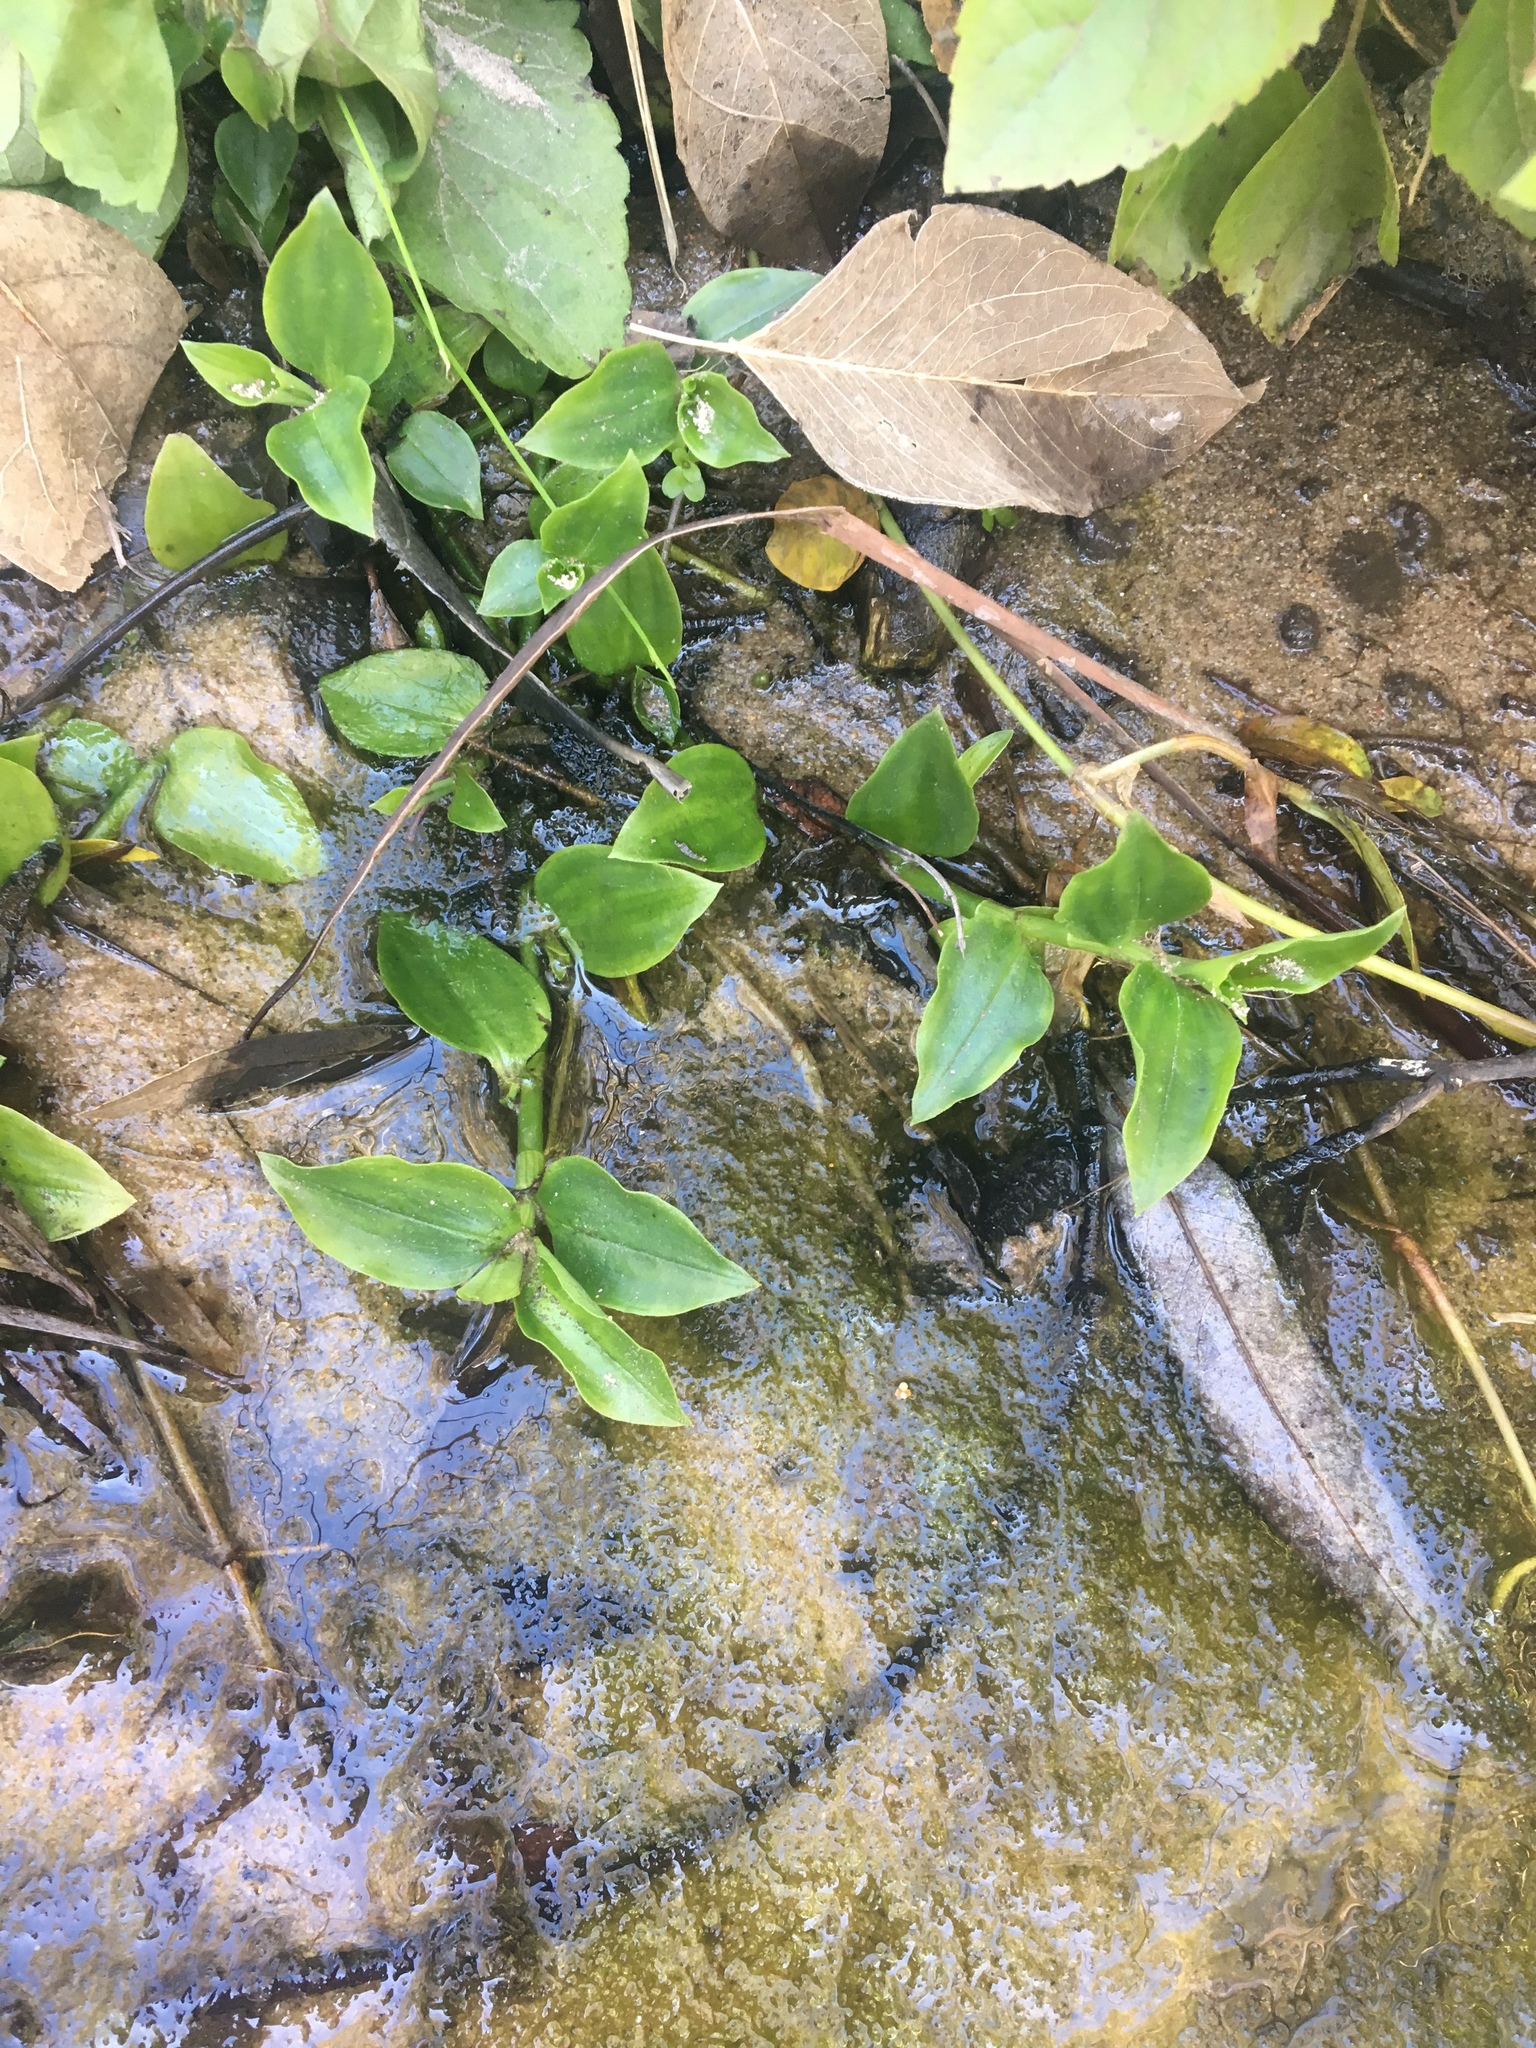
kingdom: Plantae
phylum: Tracheophyta
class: Liliopsida
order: Commelinales
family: Commelinaceae
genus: Tradescantia
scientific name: Tradescantia fluminensis
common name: Wandering-jew
